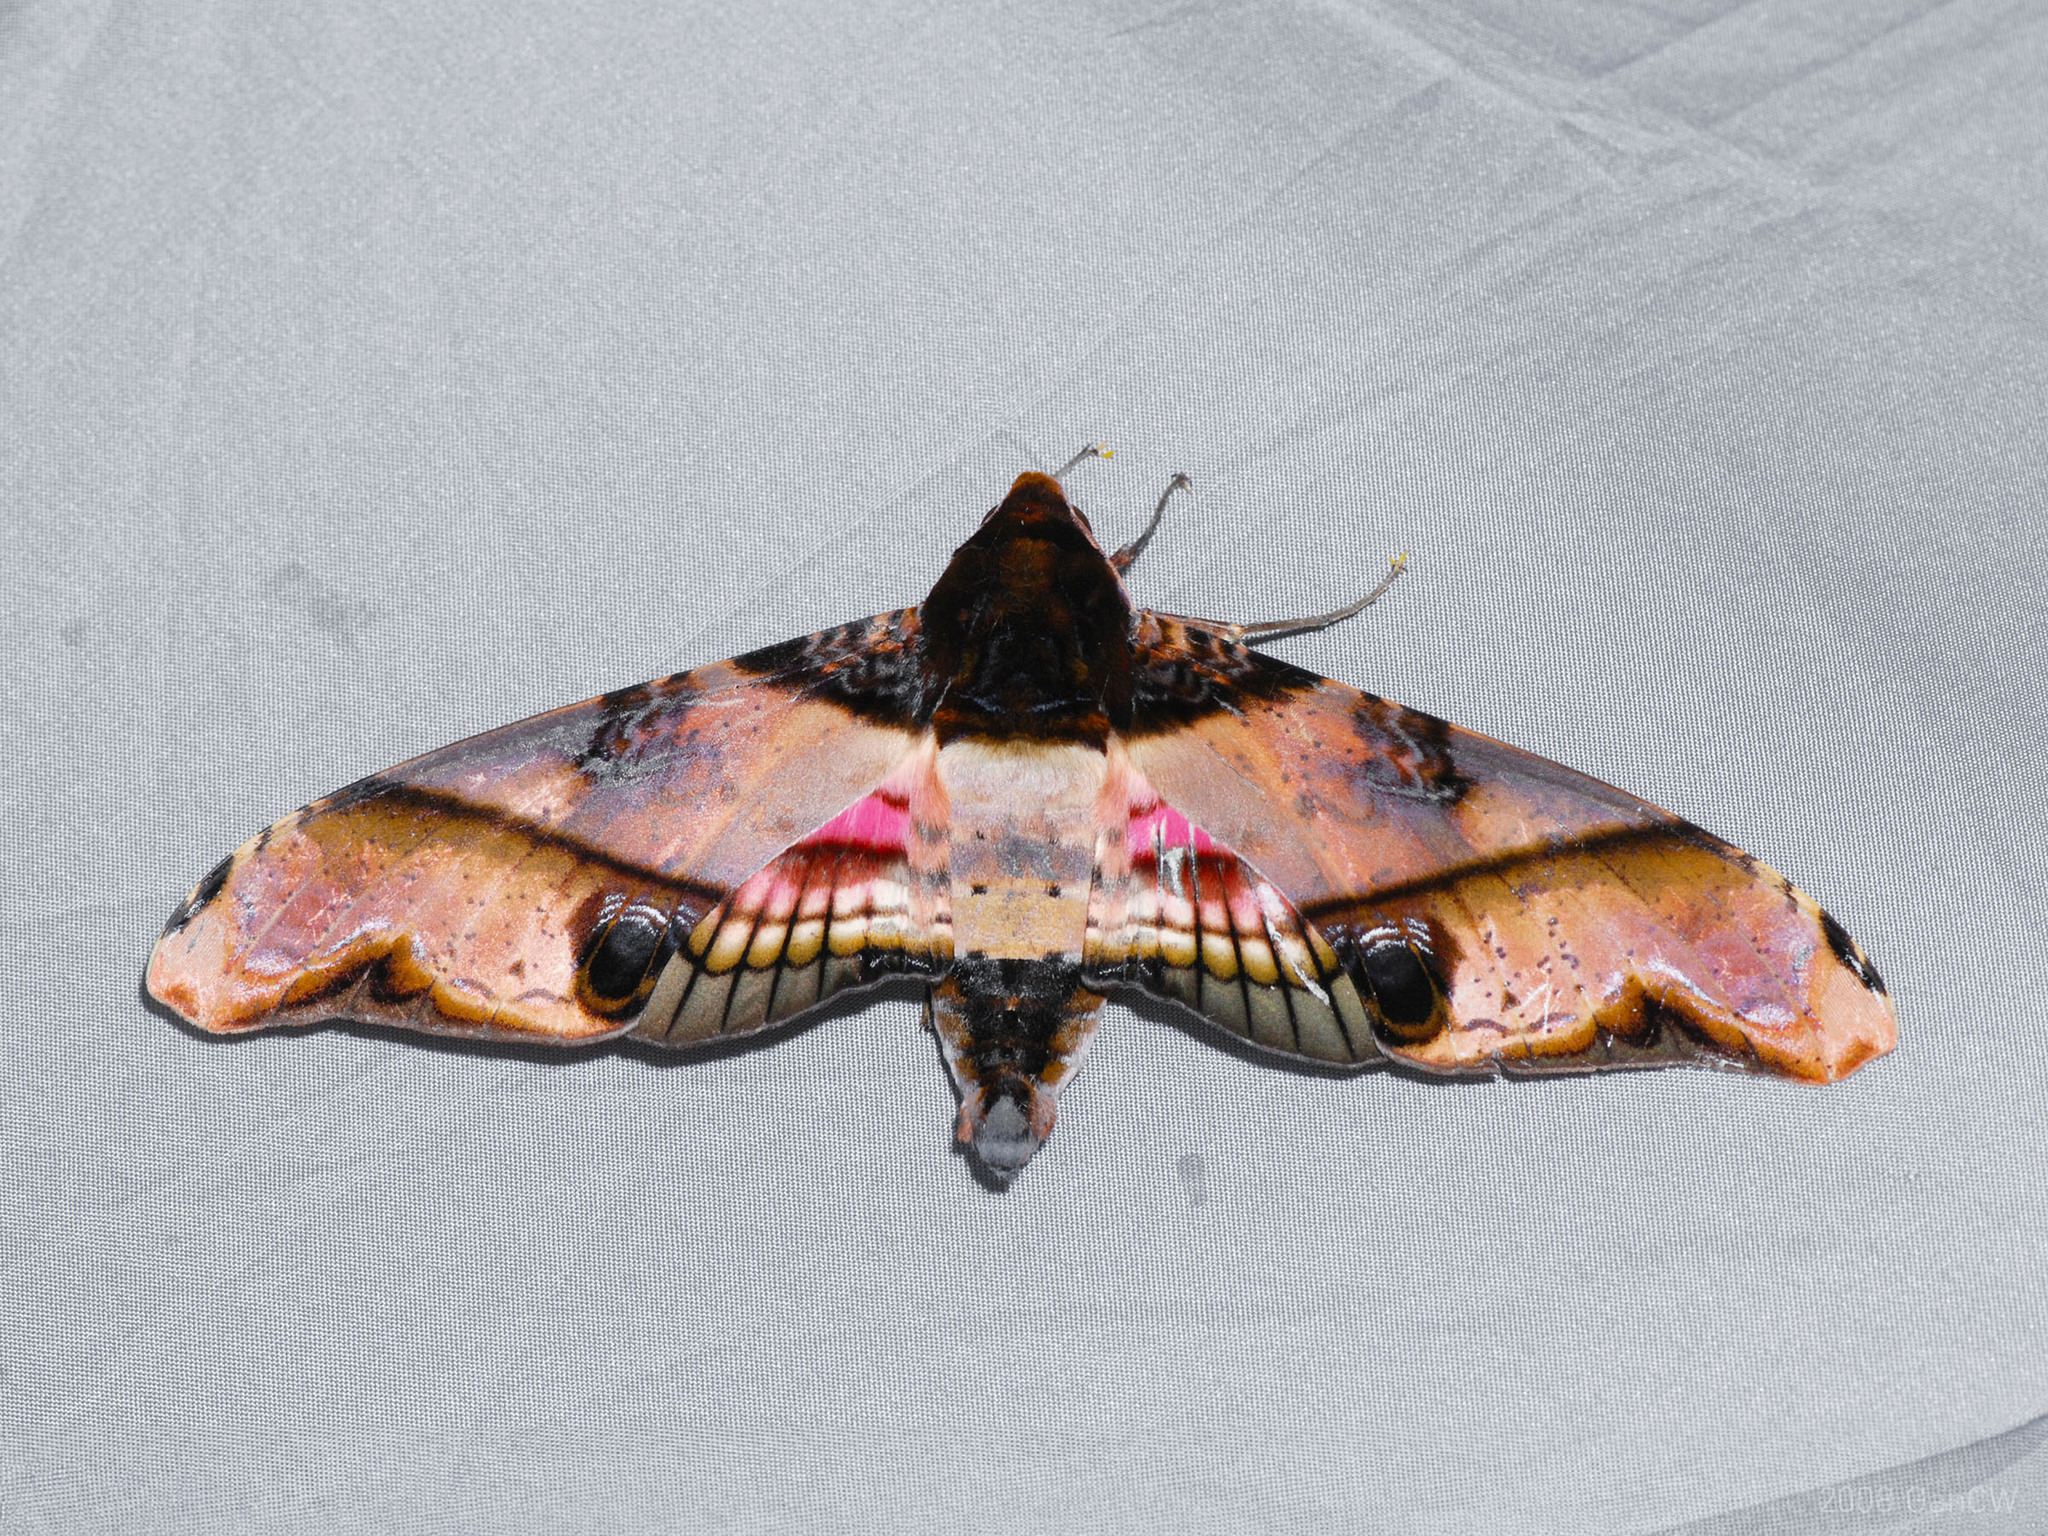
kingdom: Animalia
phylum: Arthropoda
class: Insecta
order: Lepidoptera
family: Sphingidae
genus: Amplypterus
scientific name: Amplypterus panopus
